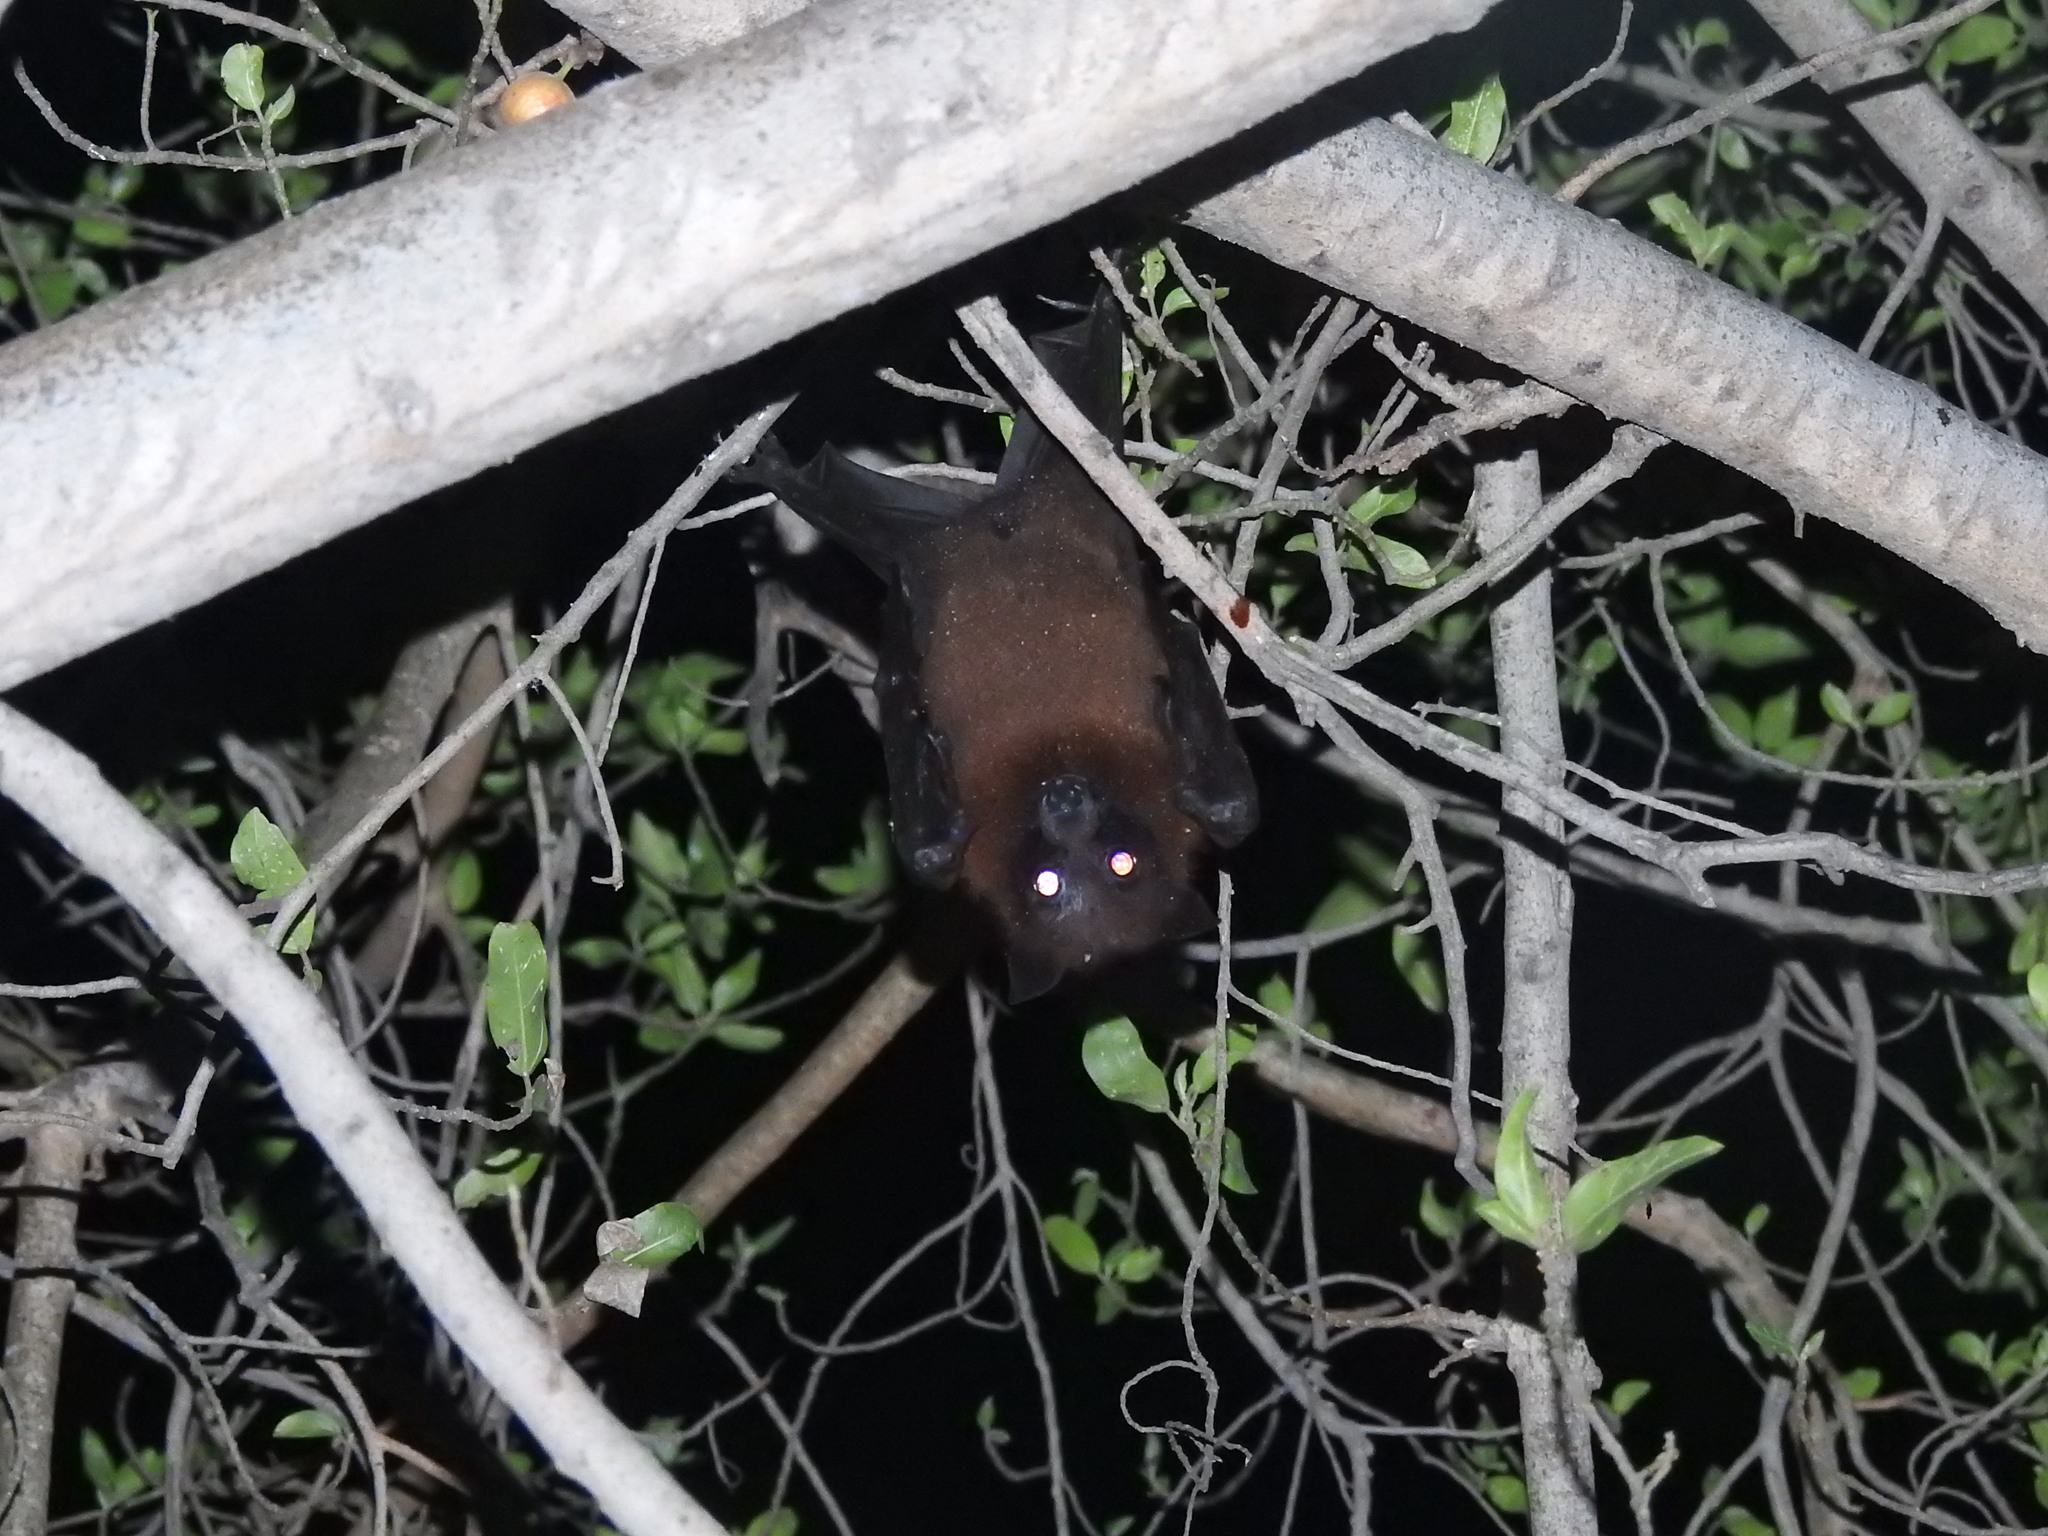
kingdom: Animalia
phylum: Chordata
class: Mammalia
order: Chiroptera
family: Pteropodidae
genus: Pteropus
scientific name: Pteropus vampyrus
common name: Large flying fox
